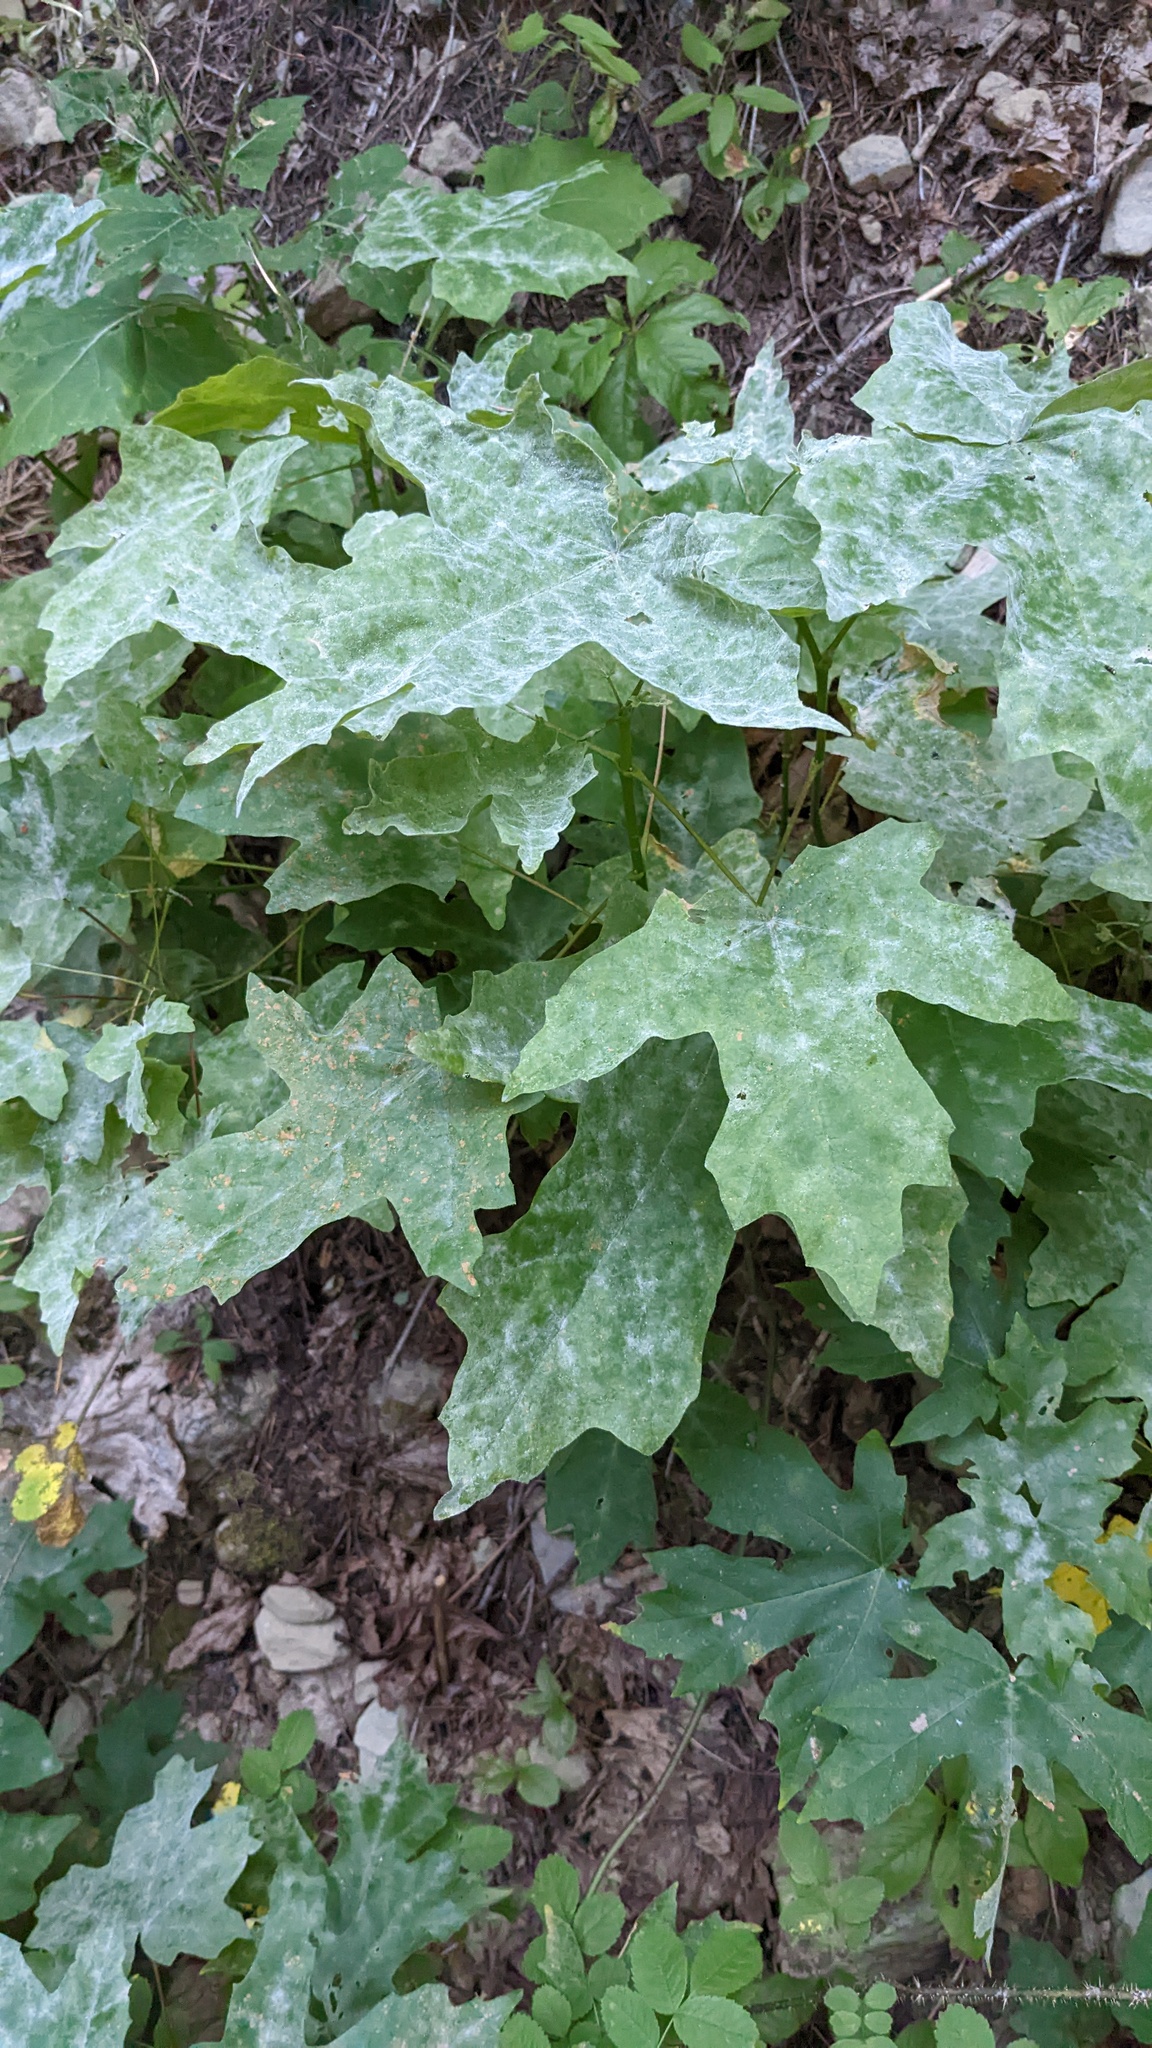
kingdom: Fungi
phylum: Ascomycota
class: Leotiomycetes
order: Helotiales
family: Erysiphaceae
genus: Sawadaea
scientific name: Sawadaea bicornis
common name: Maple mildew
